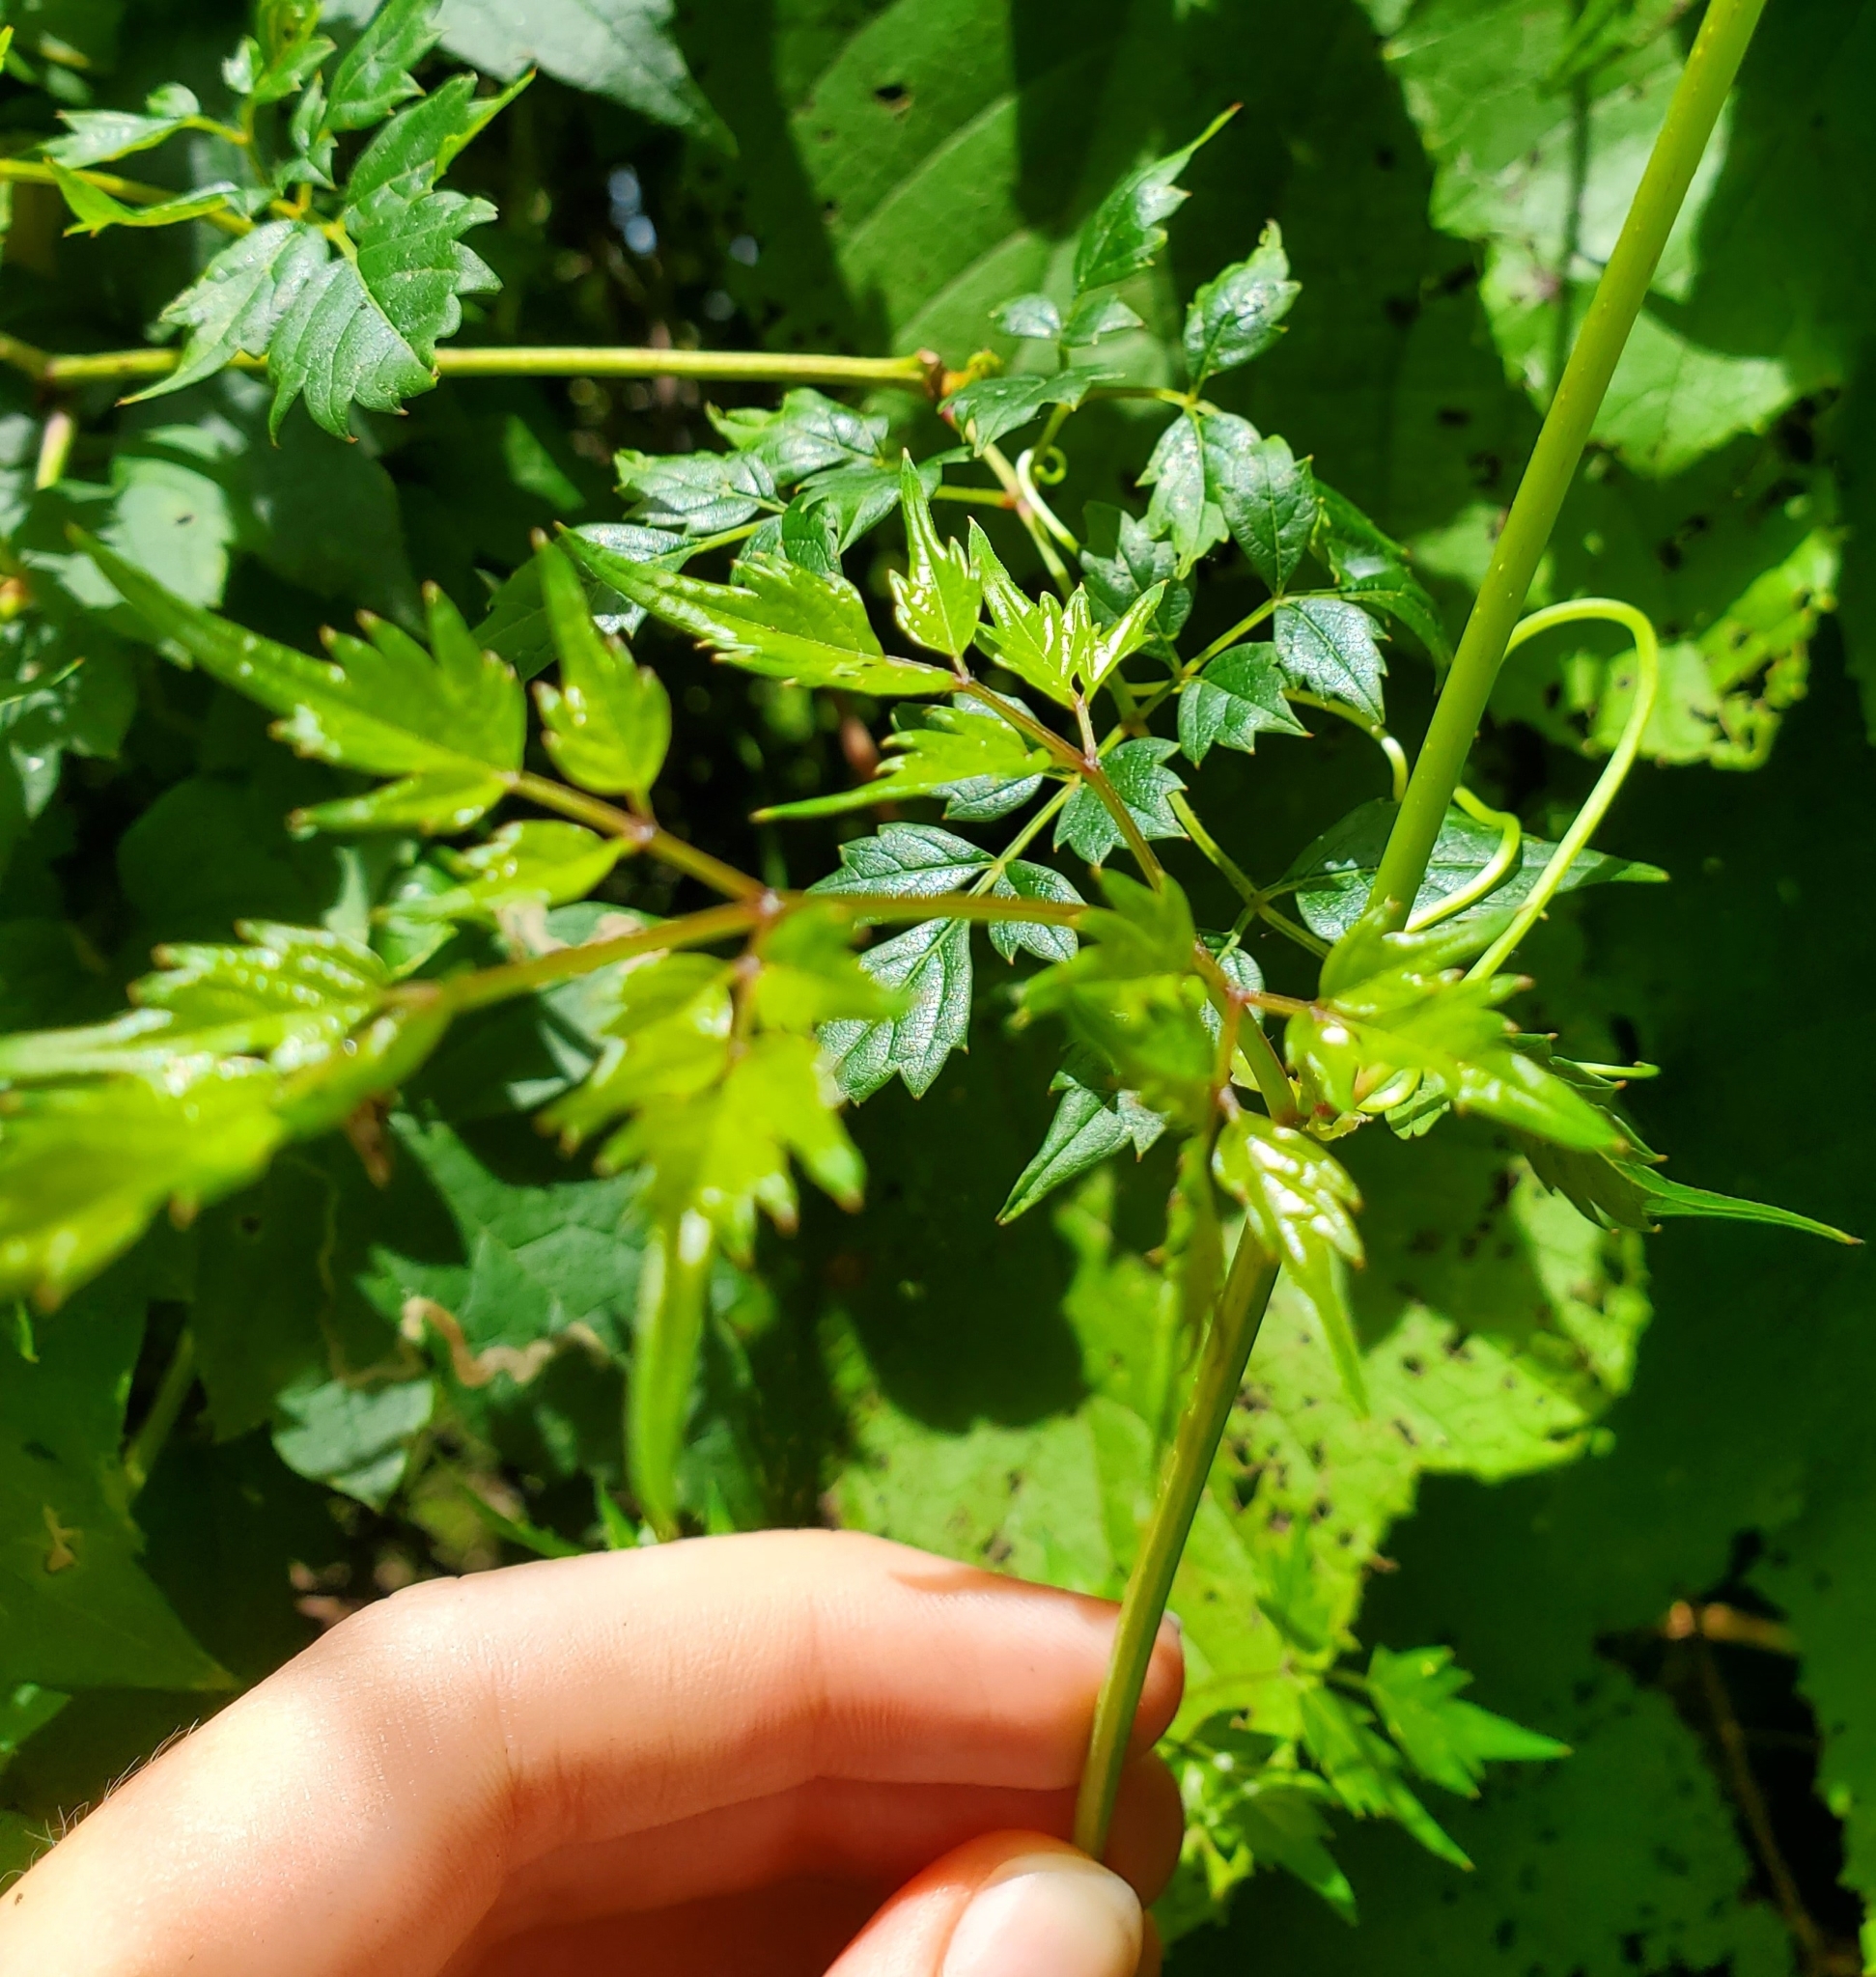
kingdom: Plantae
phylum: Tracheophyta
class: Magnoliopsida
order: Vitales
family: Vitaceae
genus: Nekemias
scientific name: Nekemias arborea
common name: Peppervine
